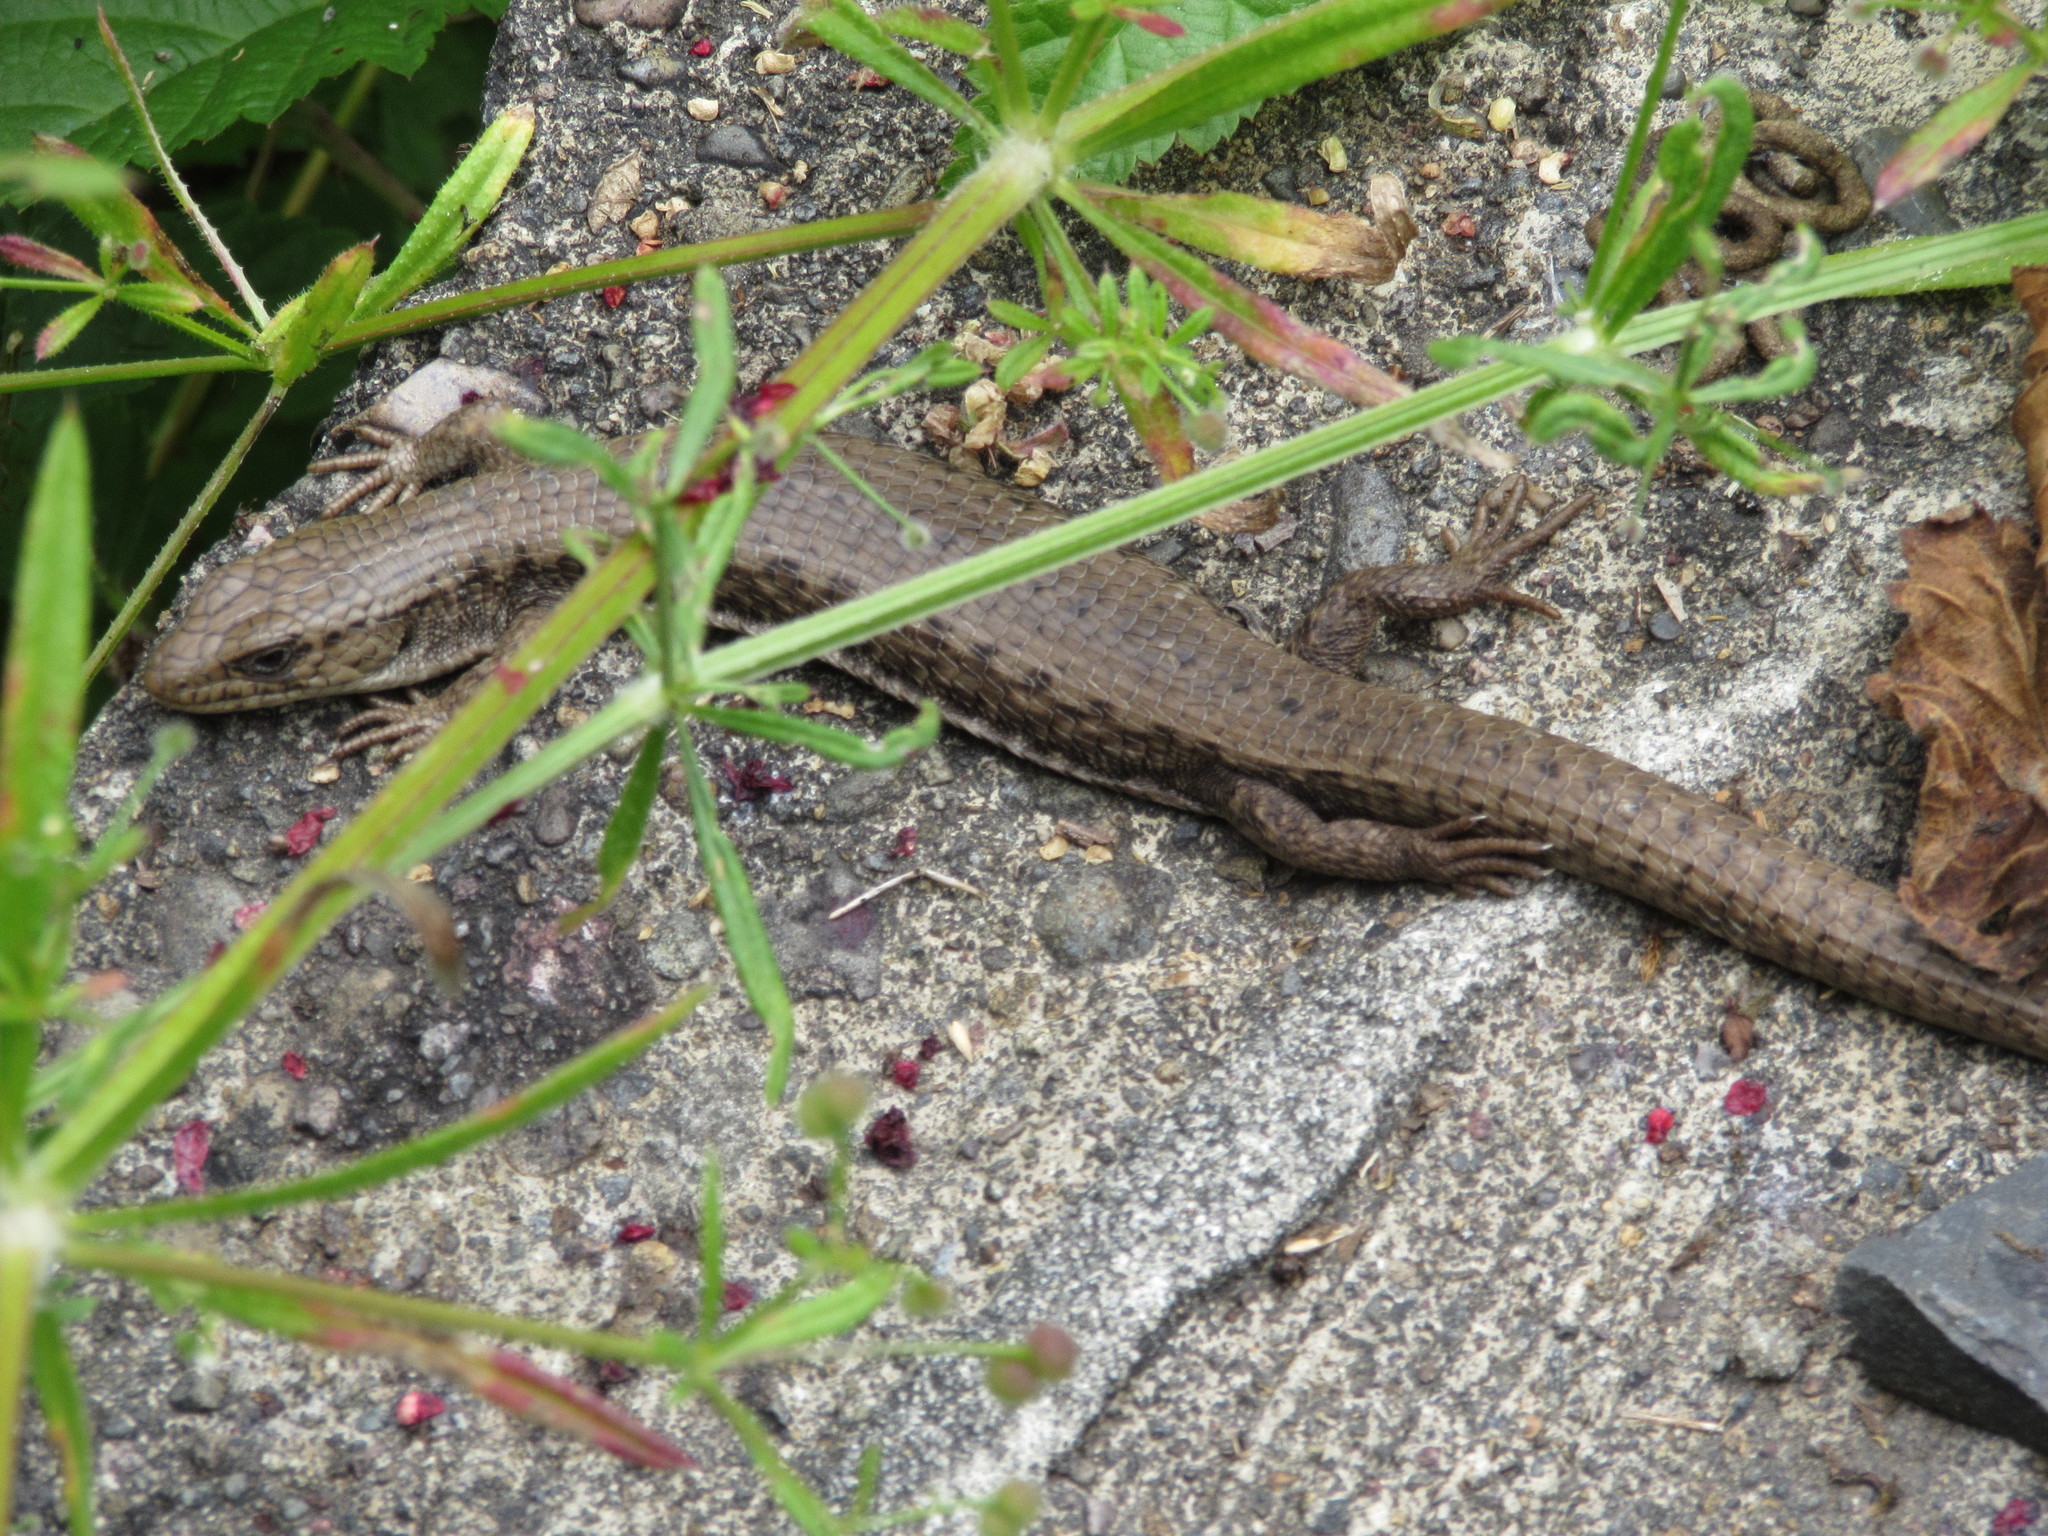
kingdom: Animalia
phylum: Chordata
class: Squamata
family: Anguidae
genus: Elgaria
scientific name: Elgaria coerulea
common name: Northern alligator lizard
